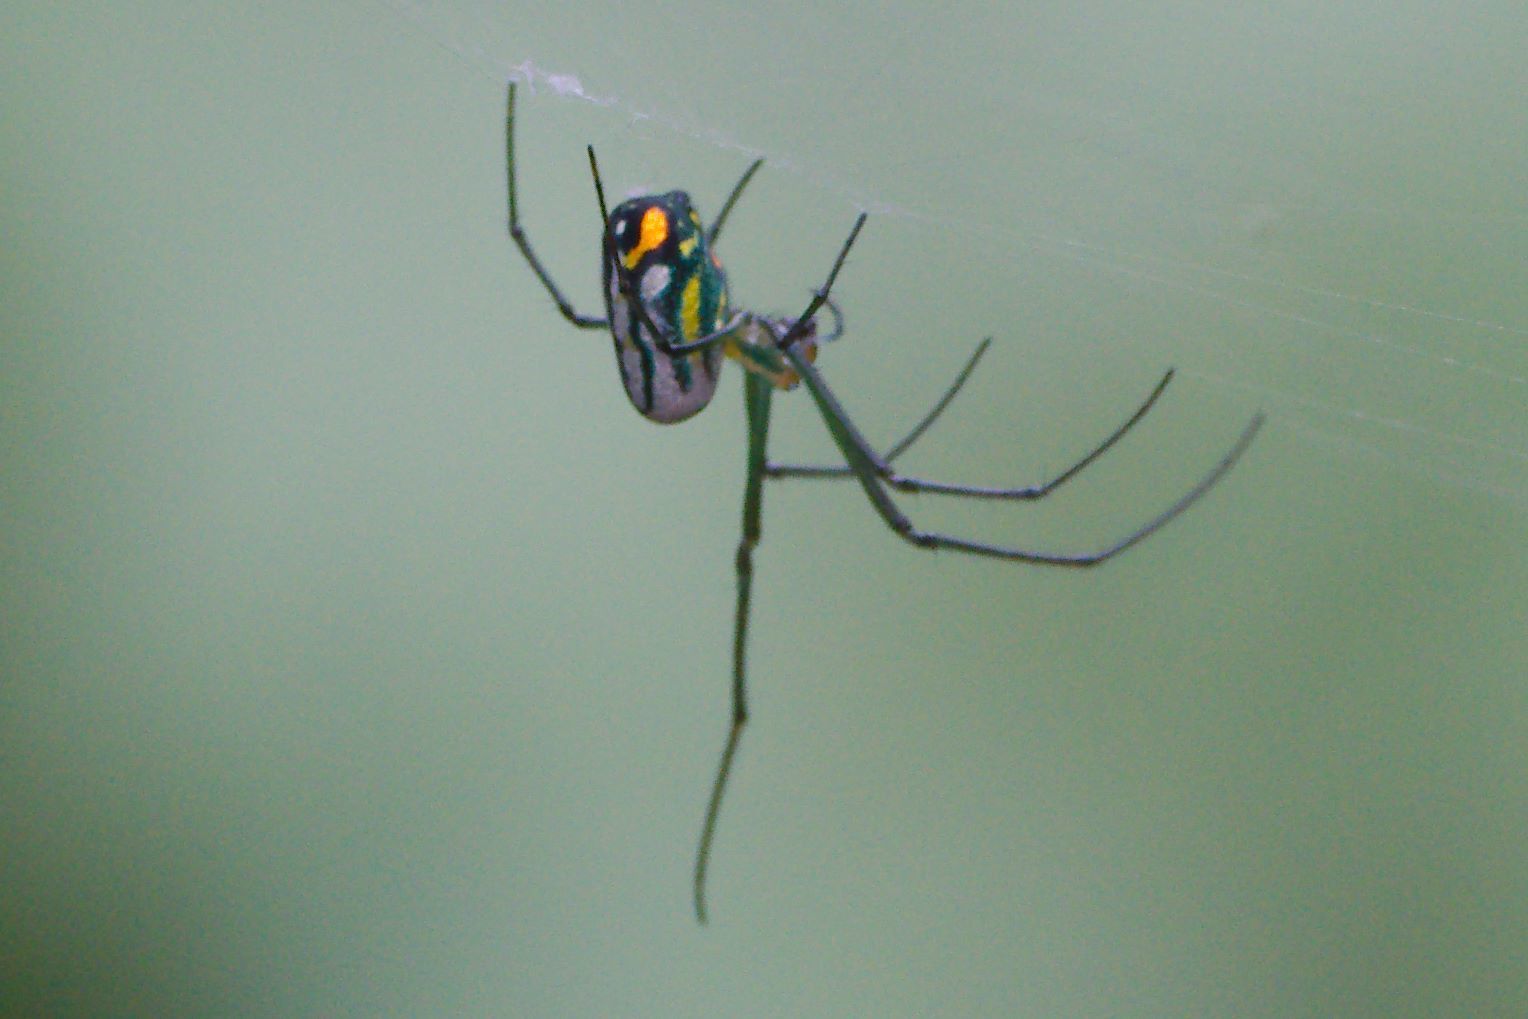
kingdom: Animalia
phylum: Arthropoda
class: Arachnida
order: Araneae
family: Tetragnathidae
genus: Leucauge
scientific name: Leucauge argyrobapta
